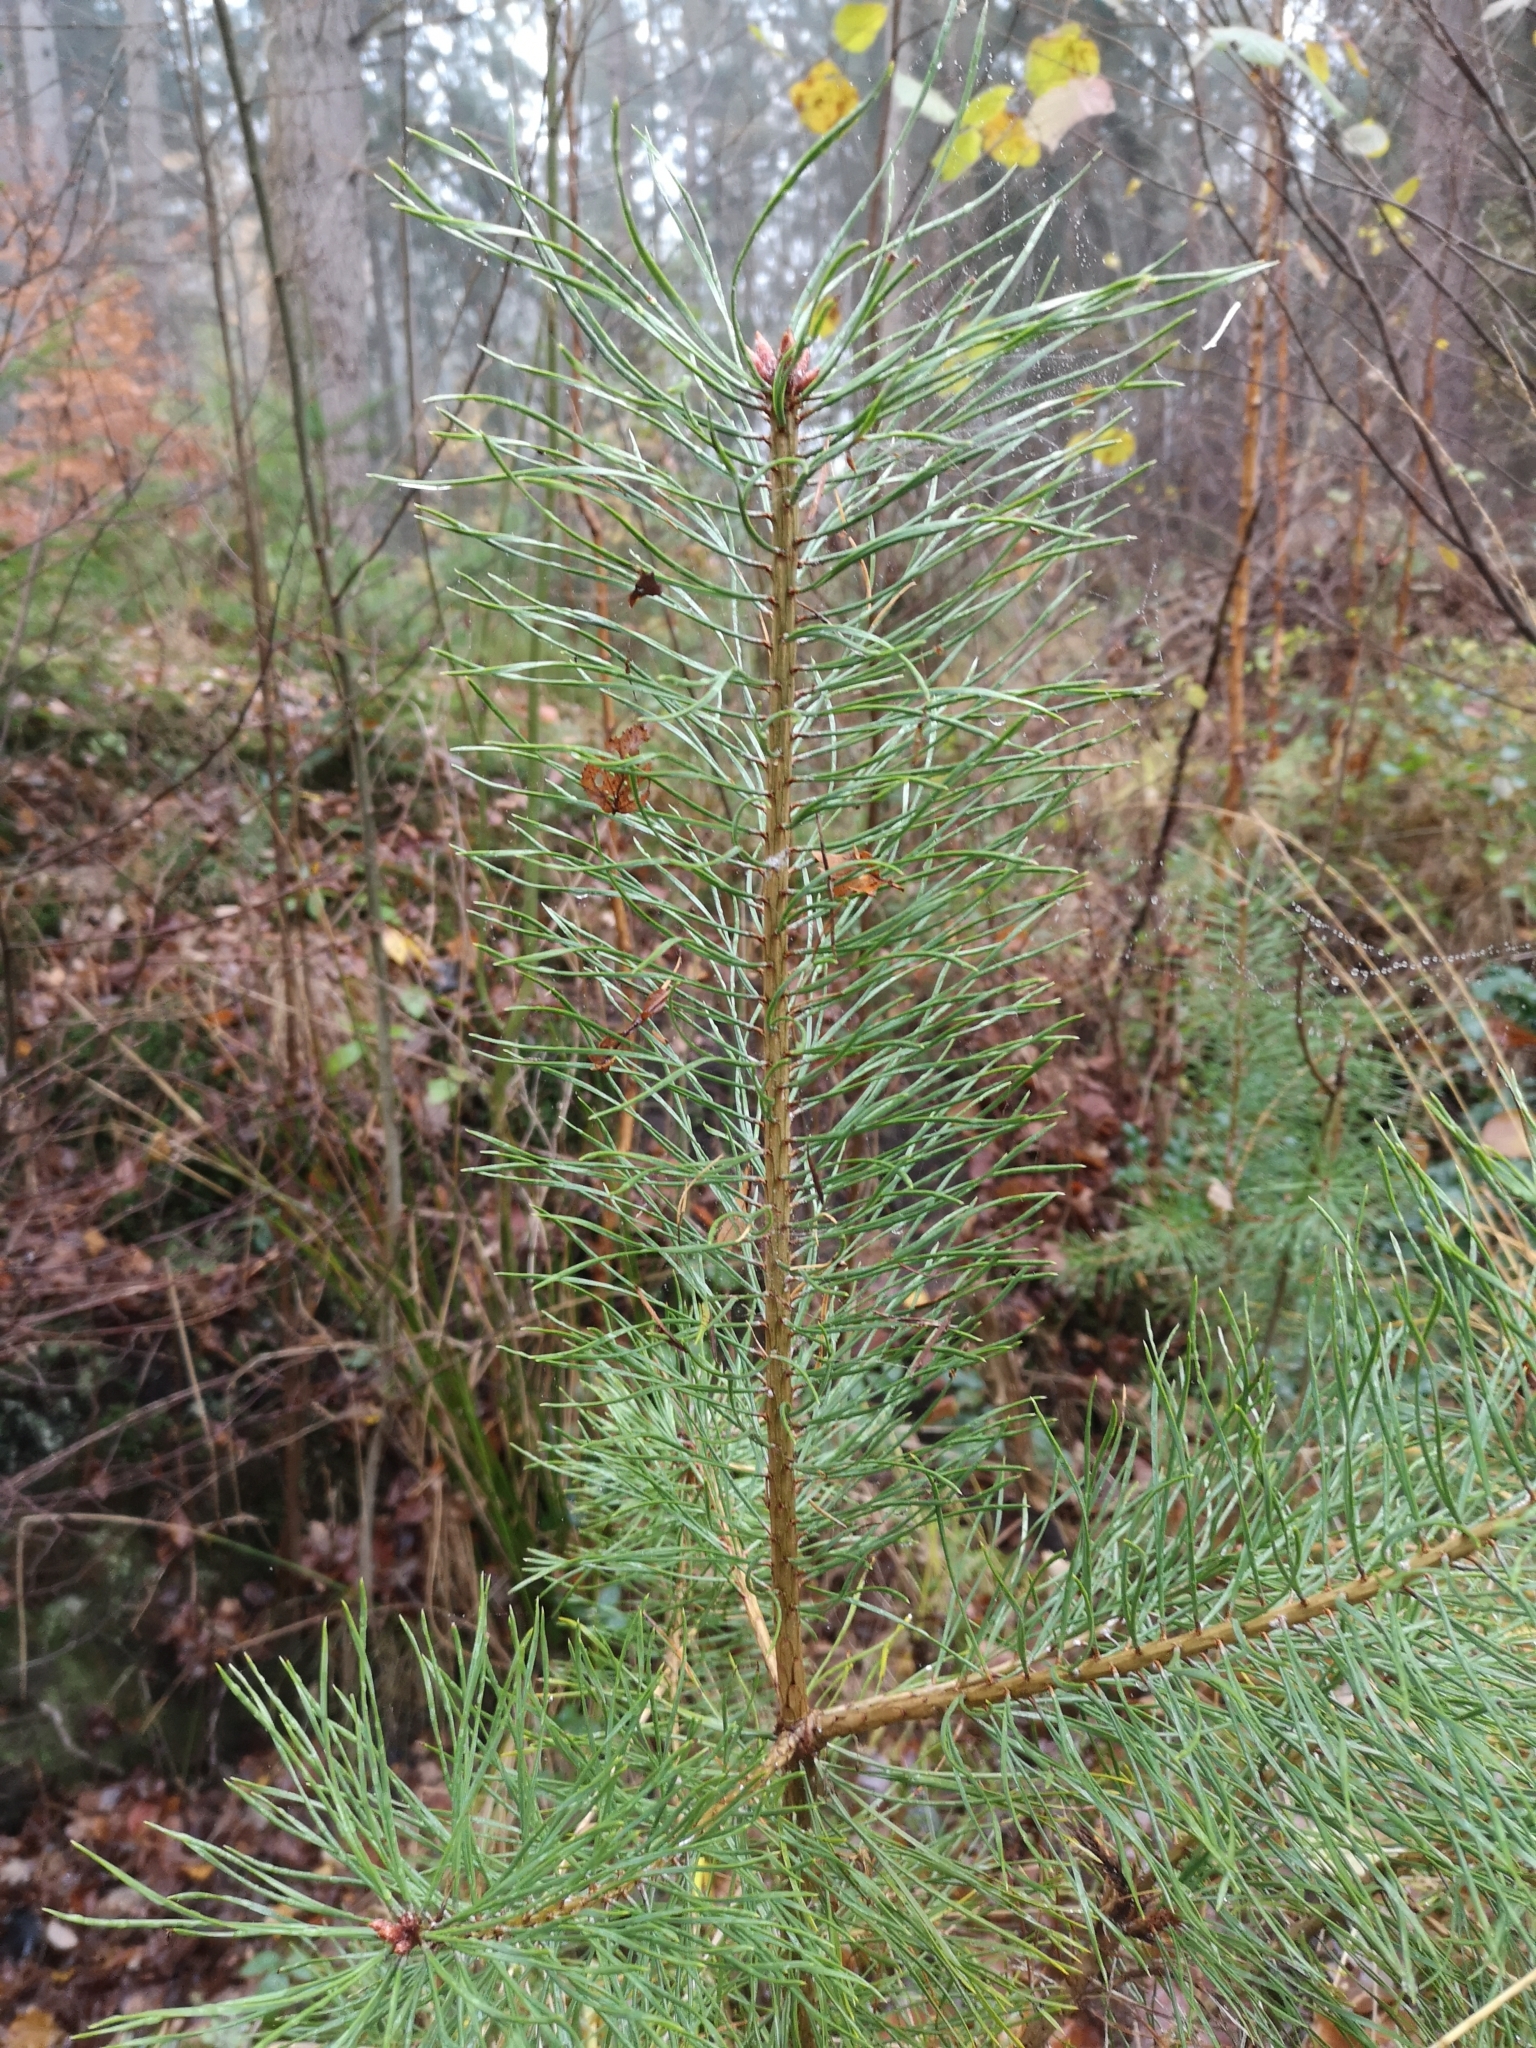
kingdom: Plantae
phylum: Tracheophyta
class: Pinopsida
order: Pinales
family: Pinaceae
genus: Pinus
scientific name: Pinus sylvestris
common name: Scots pine
